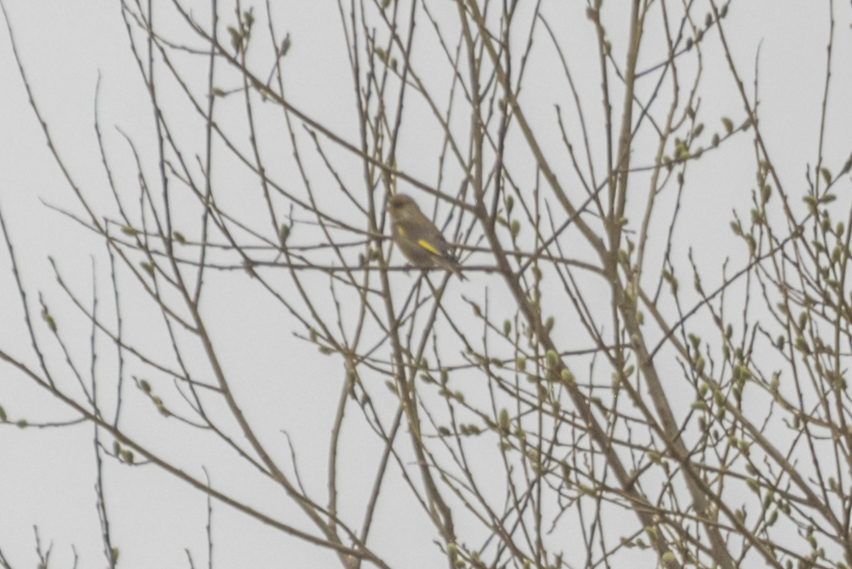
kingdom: Plantae
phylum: Tracheophyta
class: Liliopsida
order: Poales
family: Poaceae
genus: Chloris
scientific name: Chloris chloris
